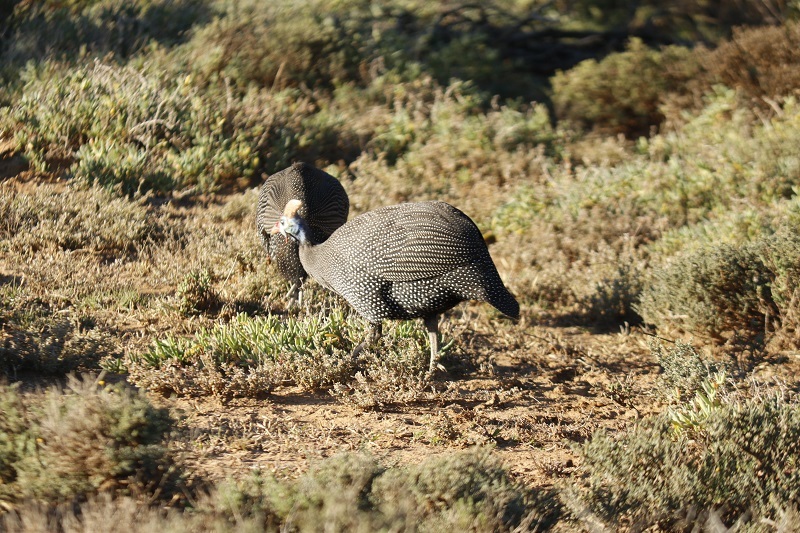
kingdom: Animalia
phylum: Chordata
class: Aves
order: Galliformes
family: Numididae
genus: Numida
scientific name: Numida meleagris
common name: Helmeted guineafowl
